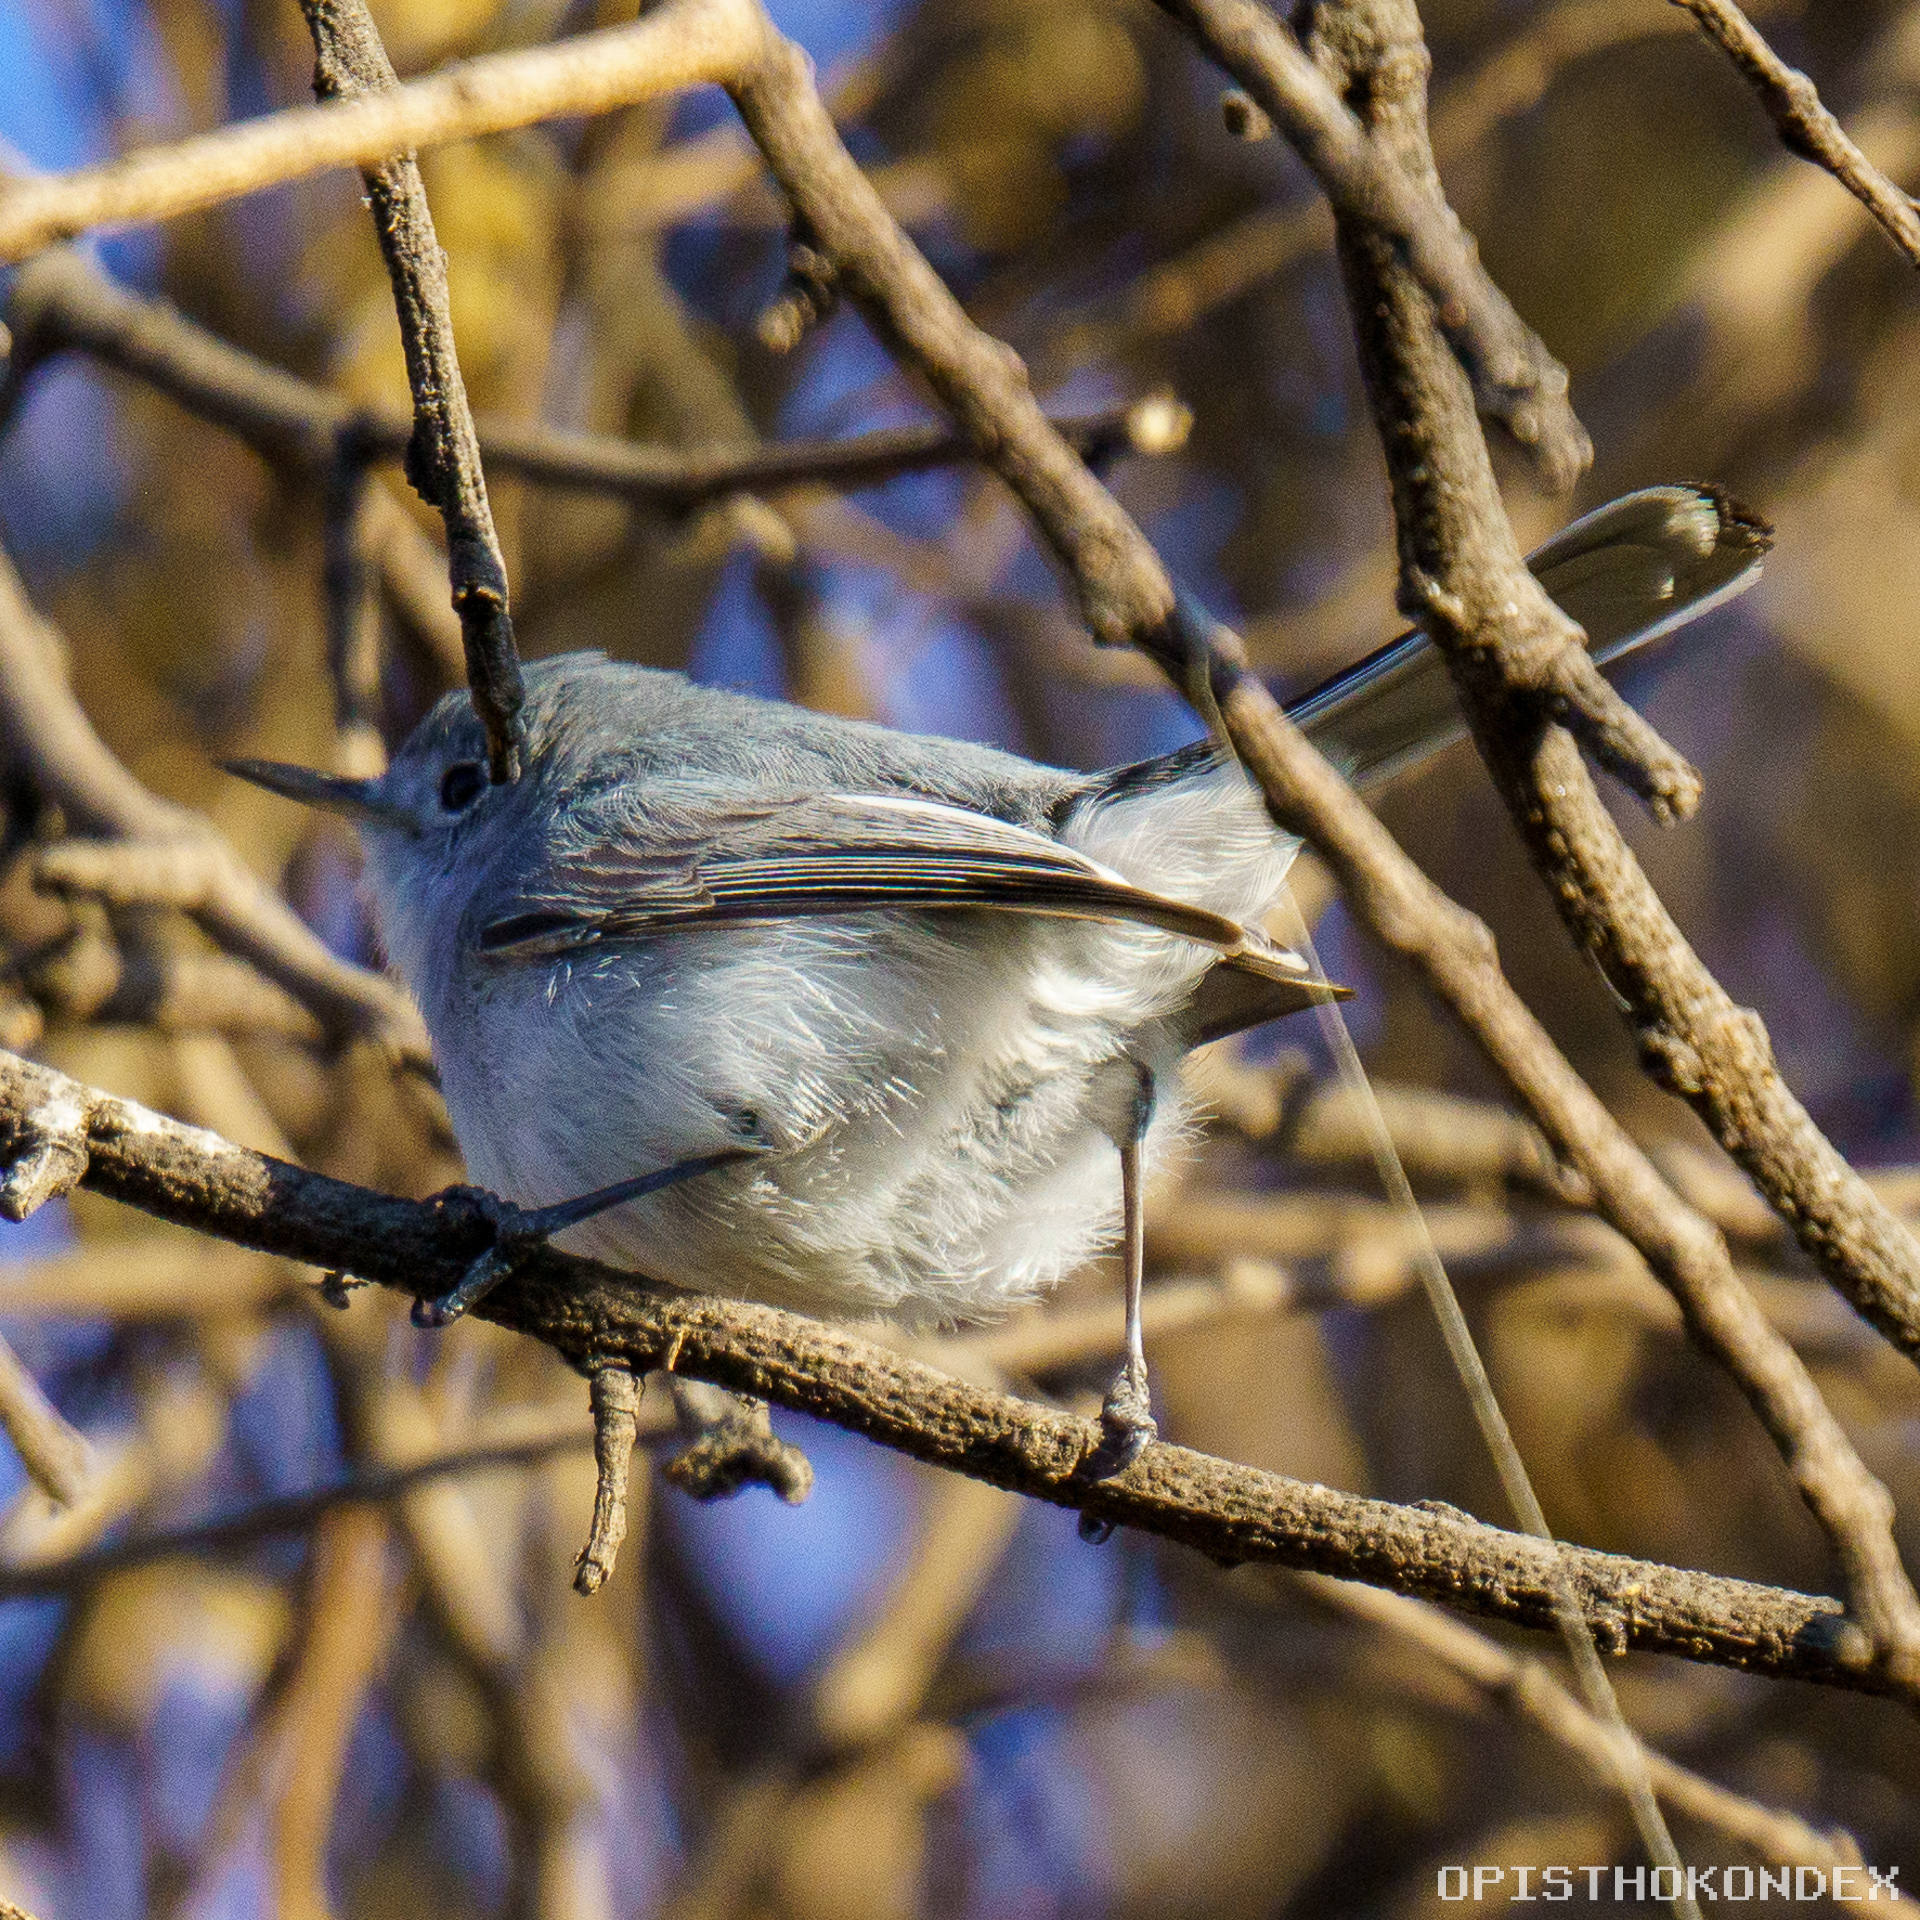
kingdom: Animalia
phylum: Chordata
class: Aves
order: Passeriformes
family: Polioptilidae
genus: Polioptila
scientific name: Polioptila caerulea
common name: Blue-gray gnatcatcher
